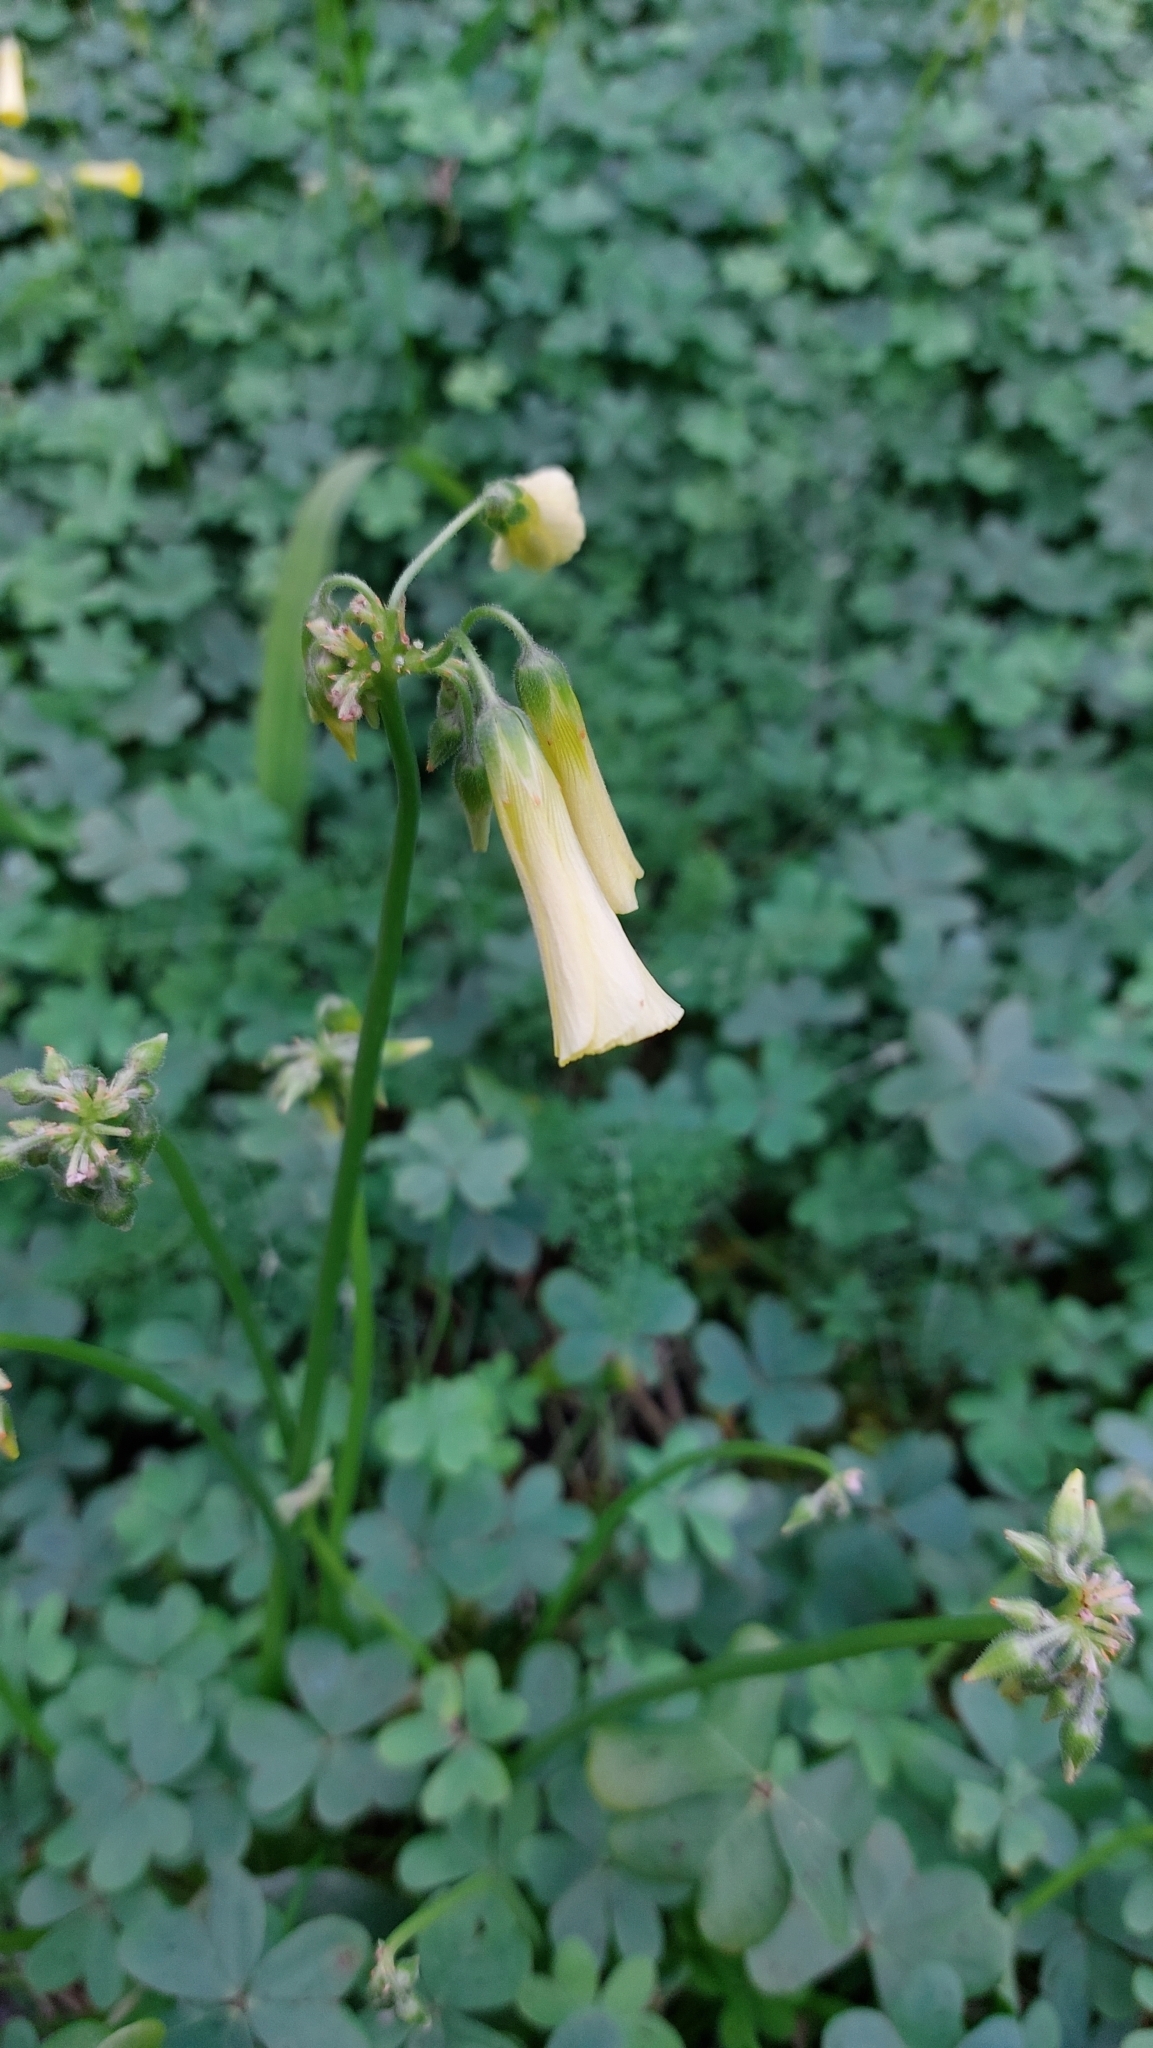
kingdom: Plantae
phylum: Tracheophyta
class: Magnoliopsida
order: Oxalidales
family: Oxalidaceae
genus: Oxalis
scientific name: Oxalis pes-caprae
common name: Bermuda-buttercup
